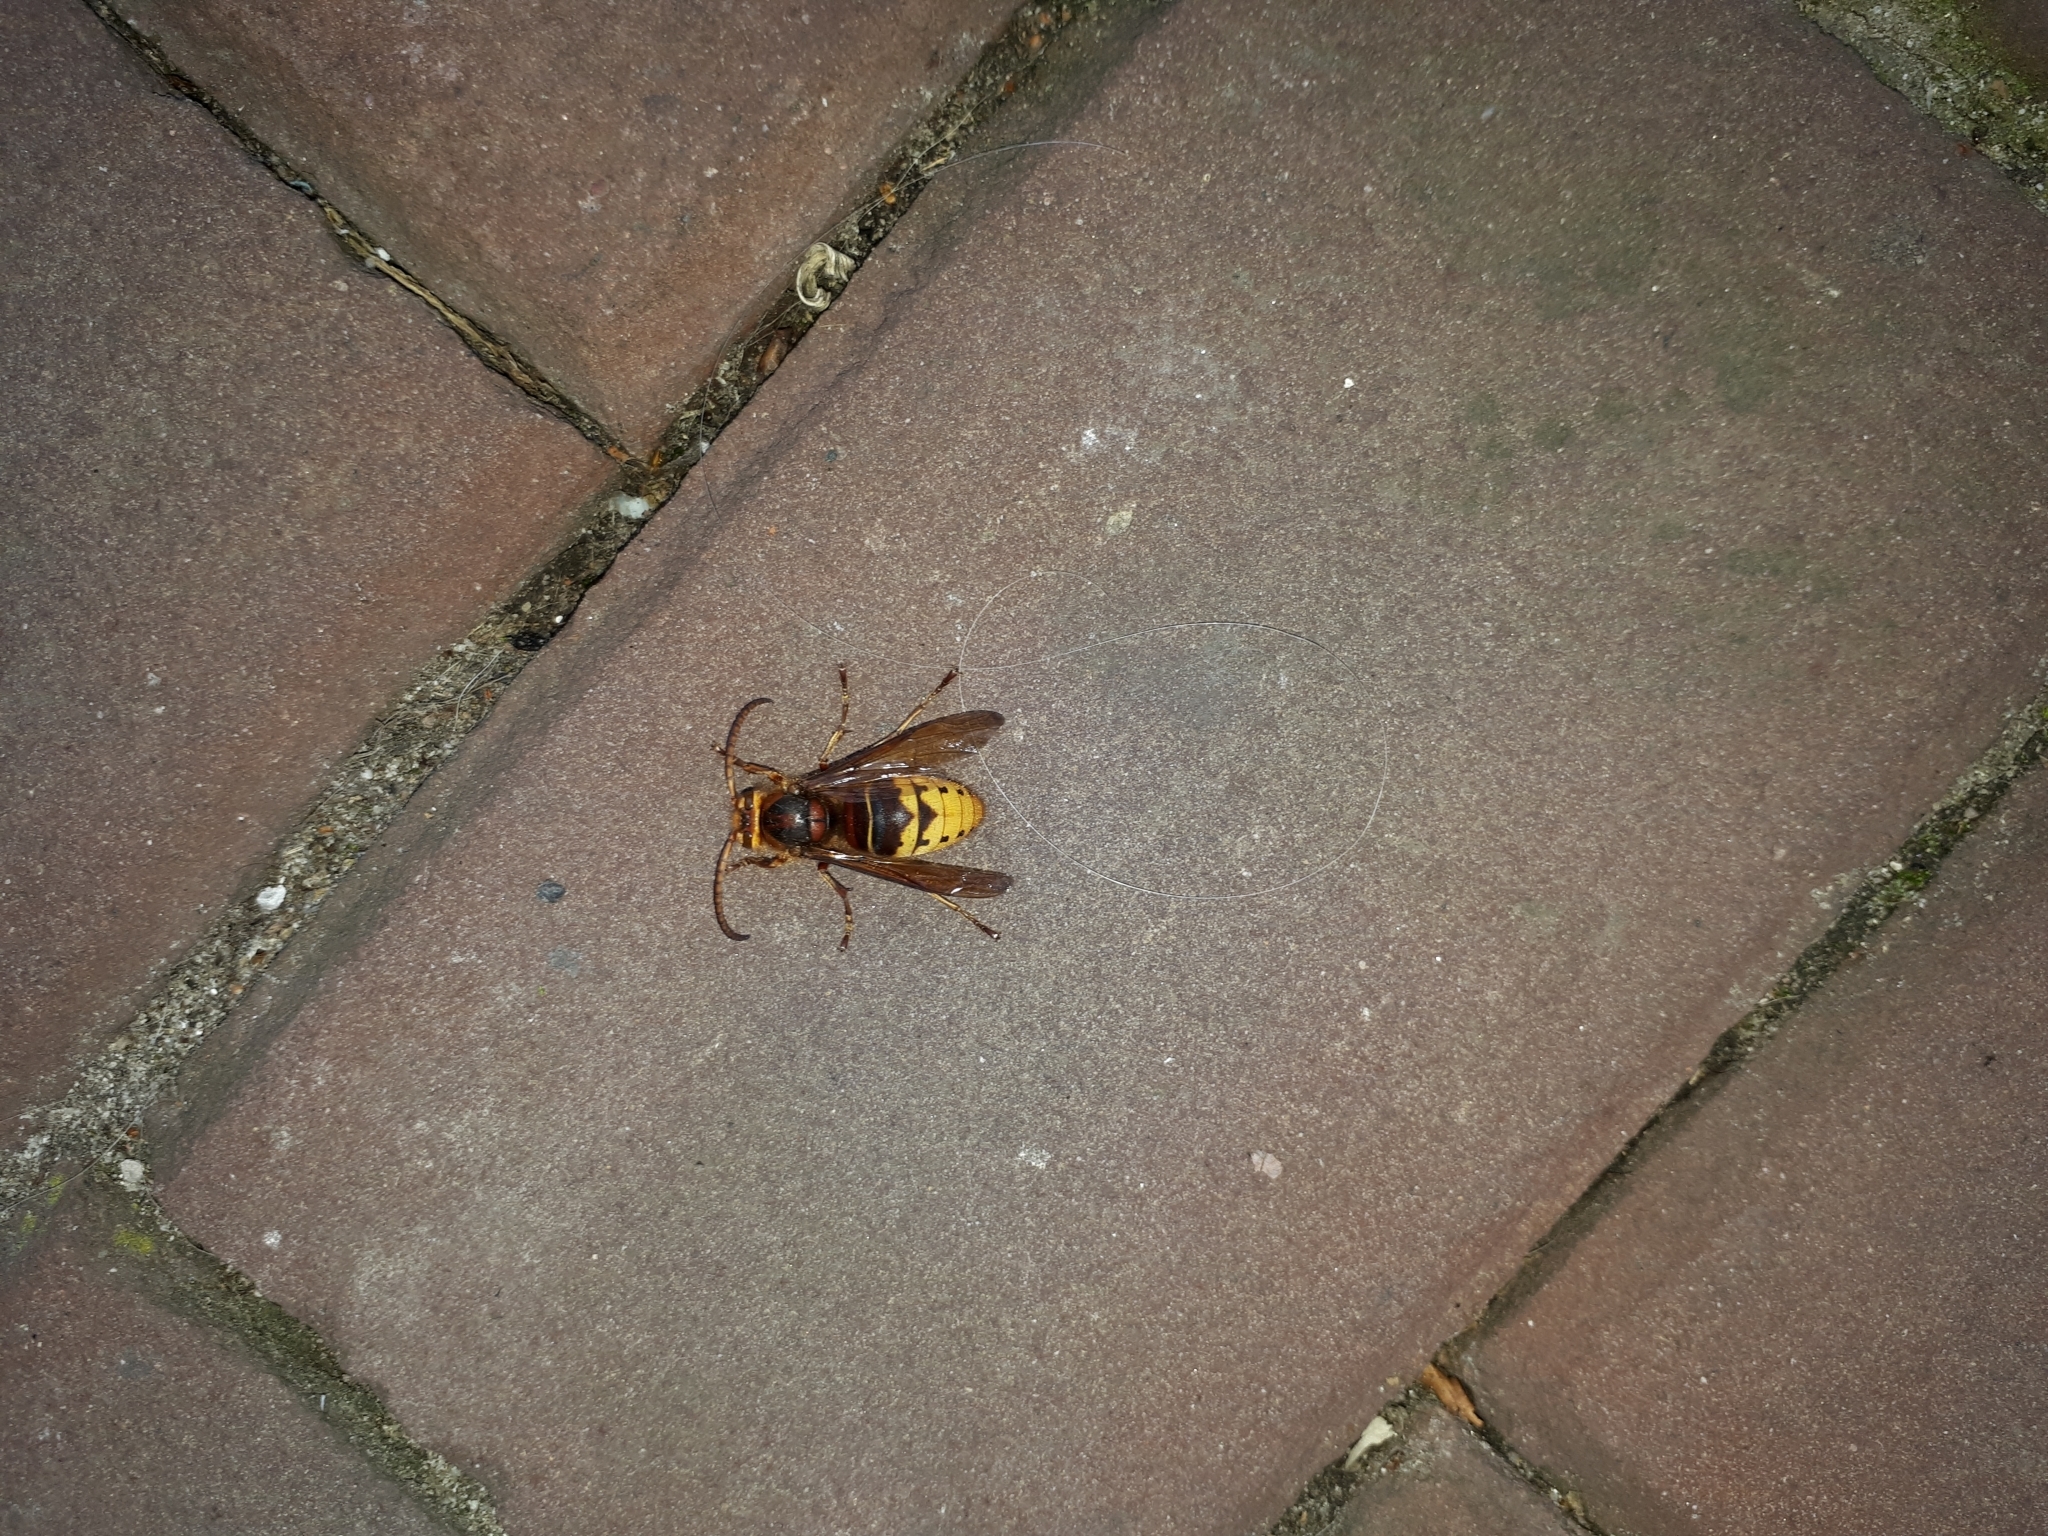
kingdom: Animalia
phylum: Arthropoda
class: Insecta
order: Hymenoptera
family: Vespidae
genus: Vespa
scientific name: Vespa crabro
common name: Hornet
